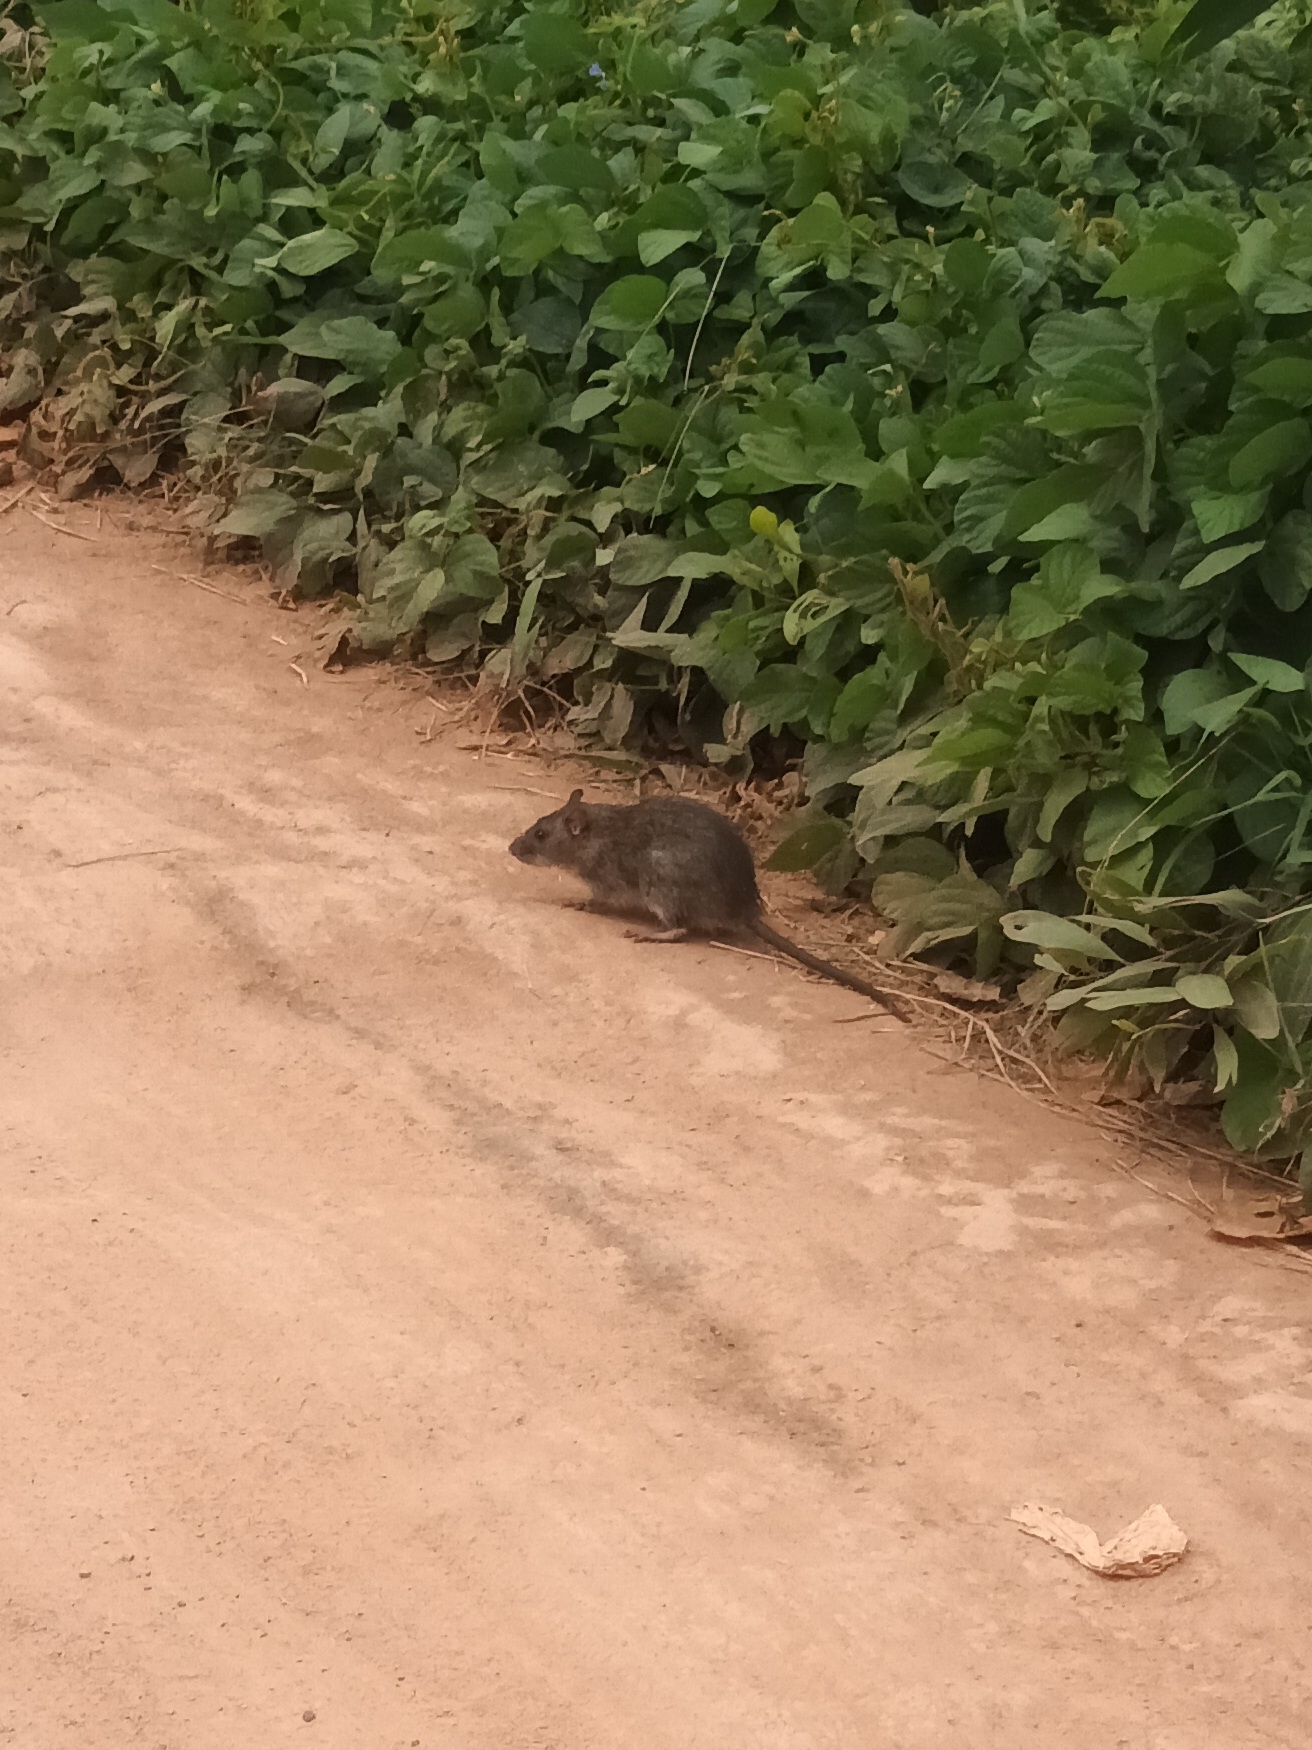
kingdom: Animalia
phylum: Chordata
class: Mammalia
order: Rodentia
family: Muridae
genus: Rattus
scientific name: Rattus rattus
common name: Black rat
